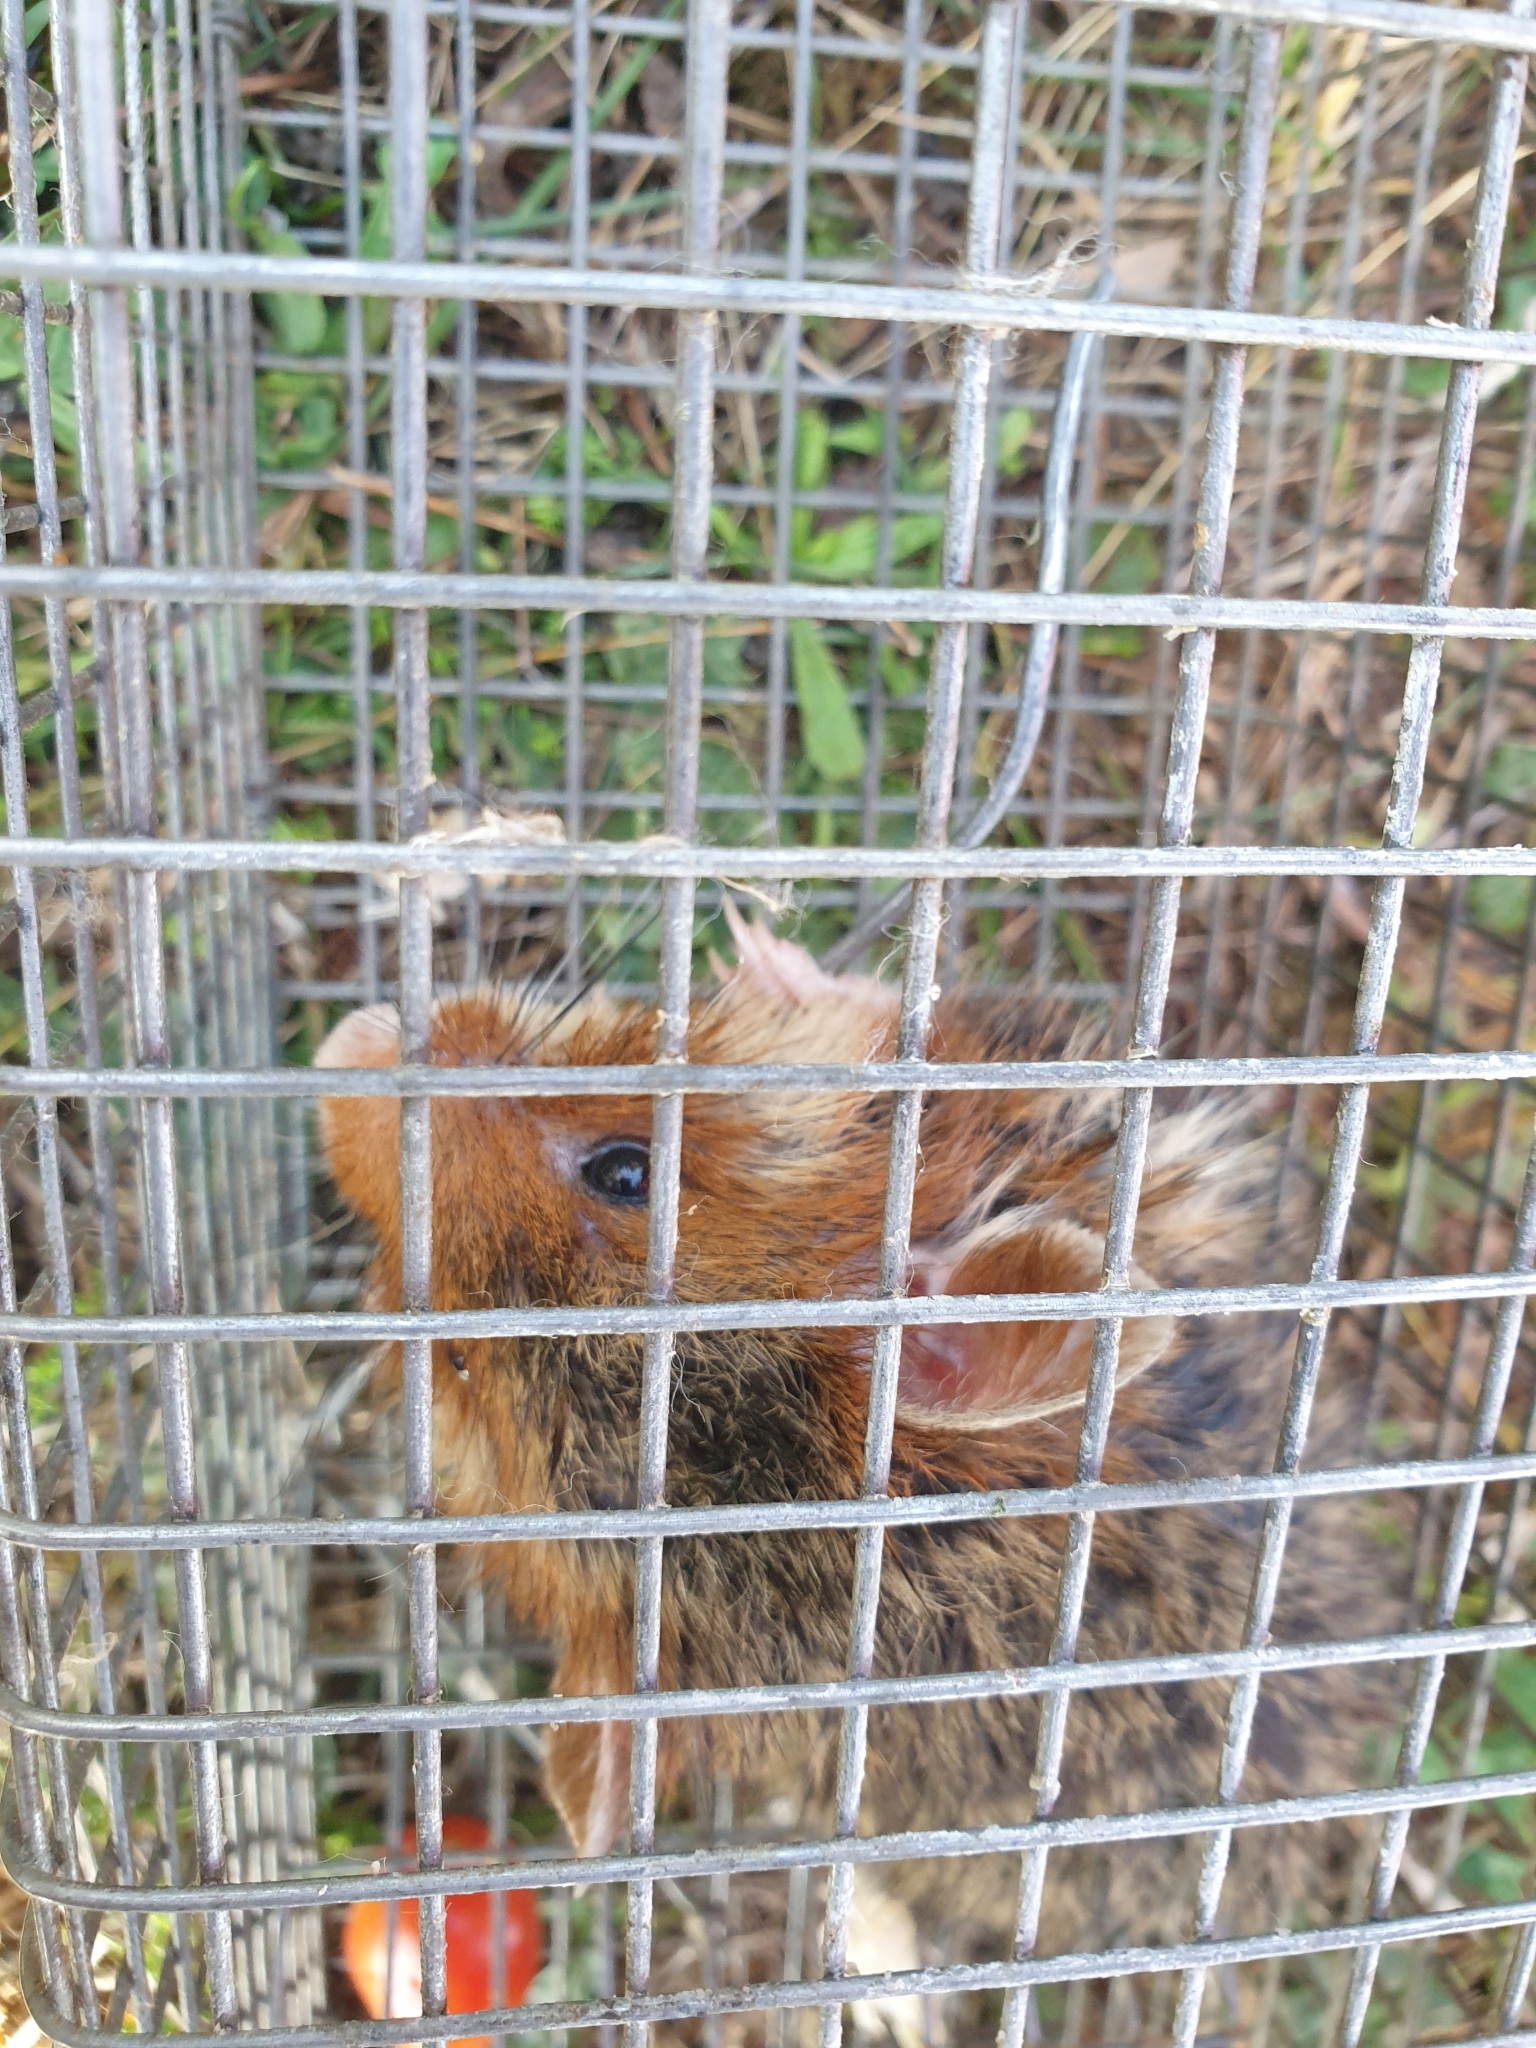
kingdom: Animalia
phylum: Chordata
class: Mammalia
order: Rodentia
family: Cricetidae
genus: Cricetus
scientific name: Cricetus cricetus
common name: Common hamster
